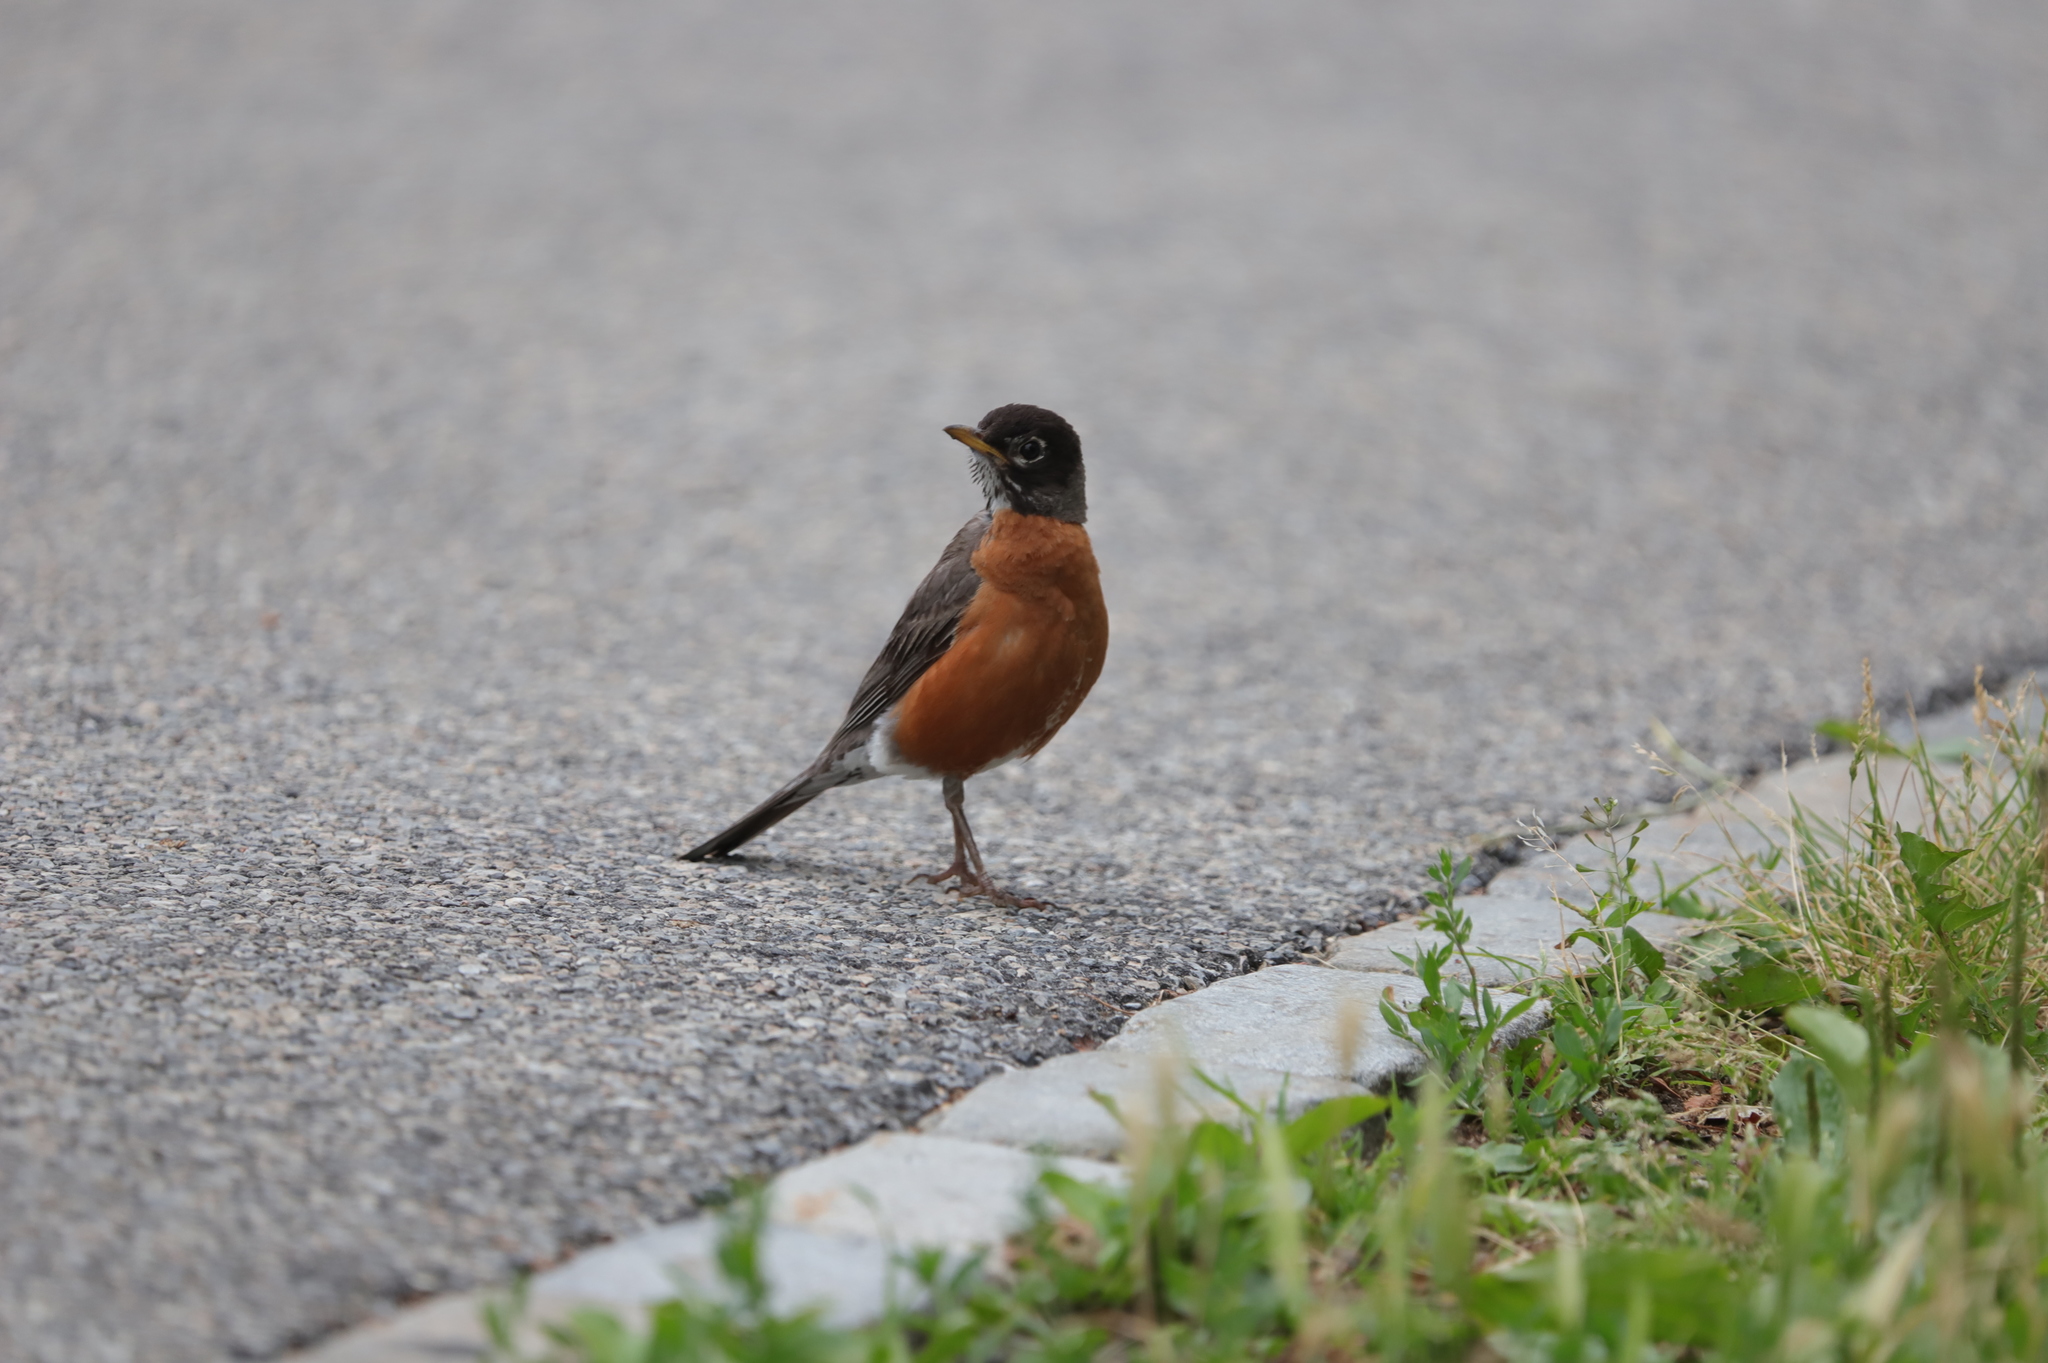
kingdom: Animalia
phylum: Chordata
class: Aves
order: Passeriformes
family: Turdidae
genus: Turdus
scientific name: Turdus migratorius
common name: American robin
